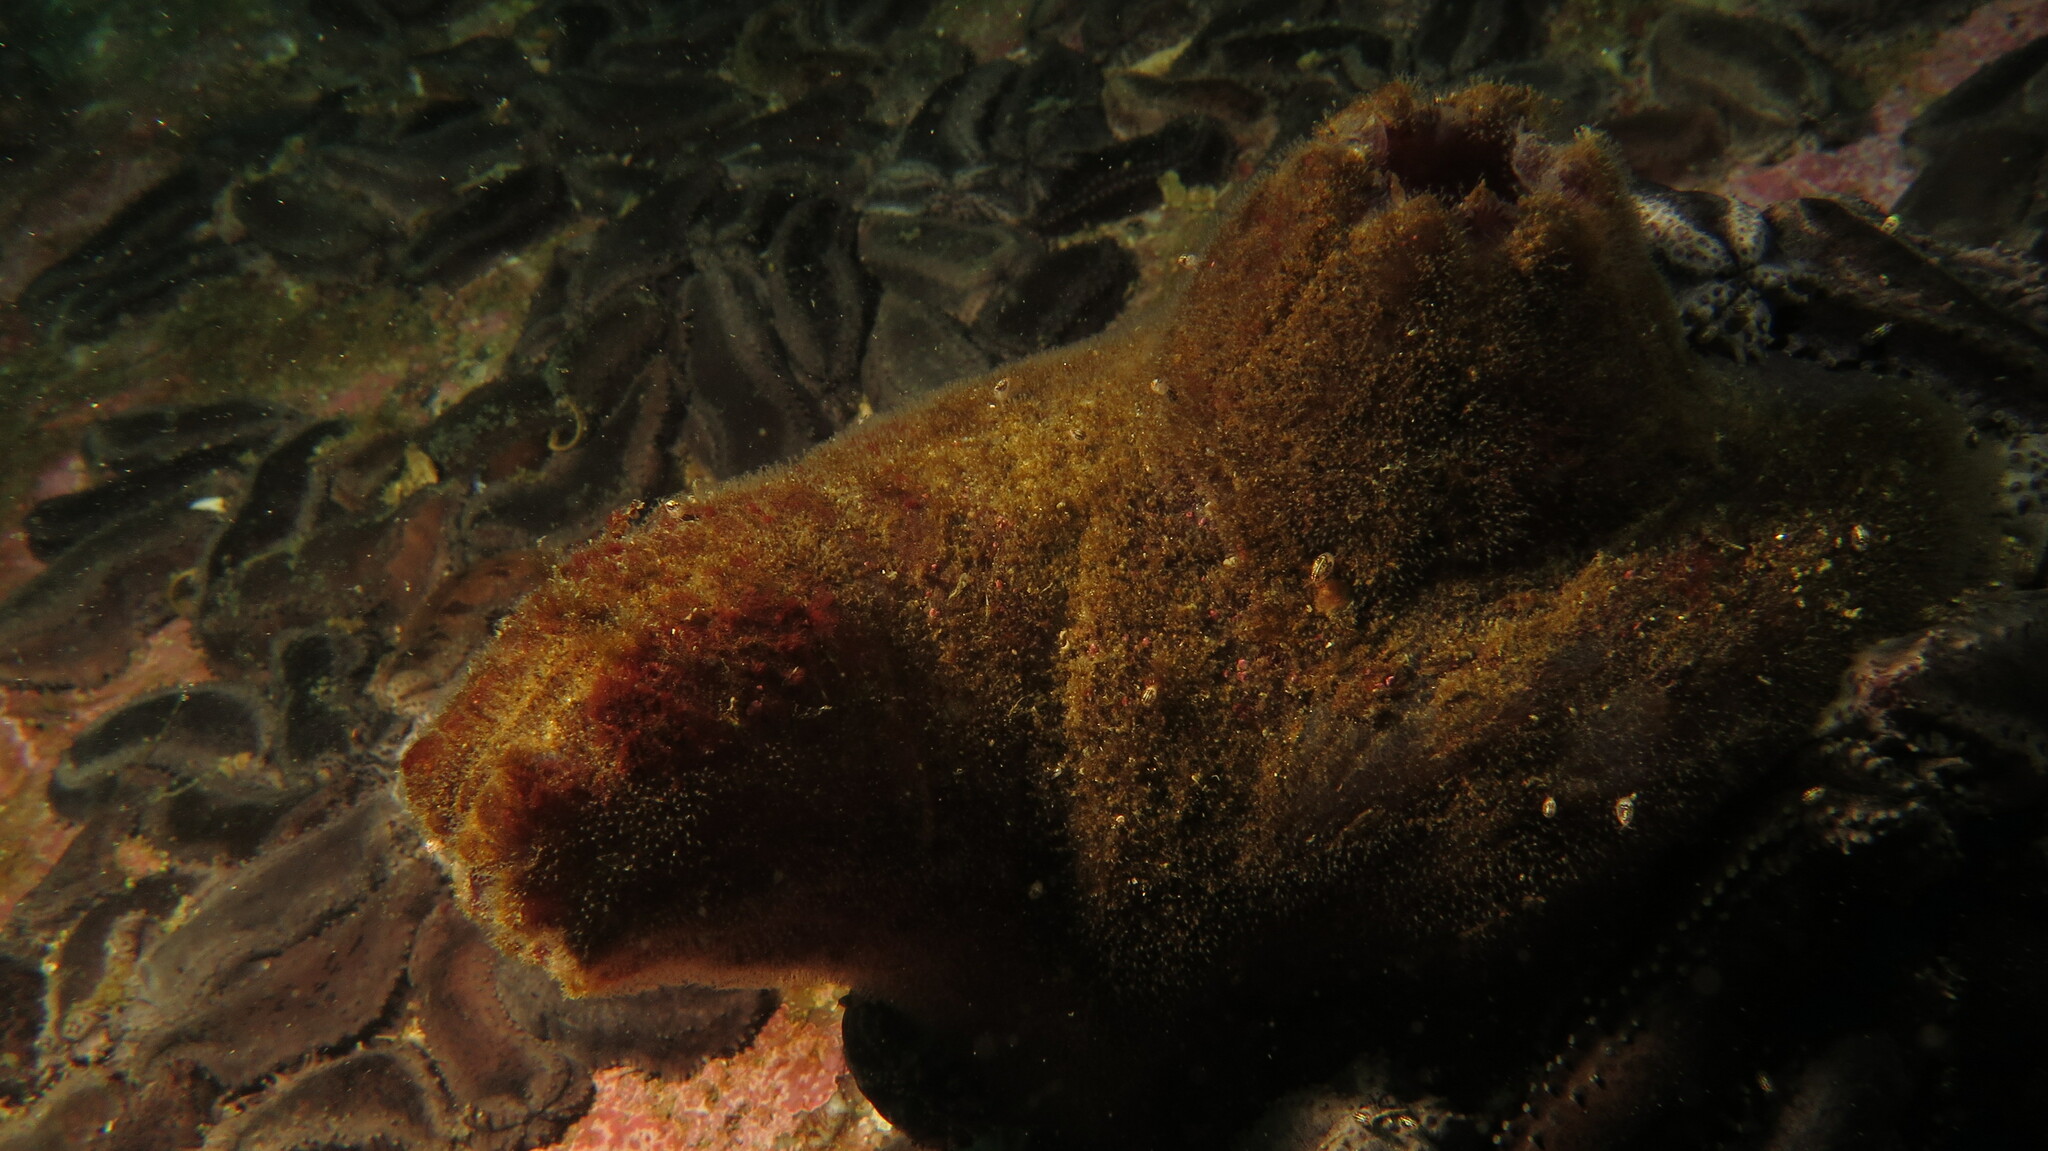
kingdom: Animalia
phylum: Chordata
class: Ascidiacea
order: Stolidobranchia
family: Pyuridae
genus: Pyura
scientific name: Pyura stolonifera
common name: Red bait
